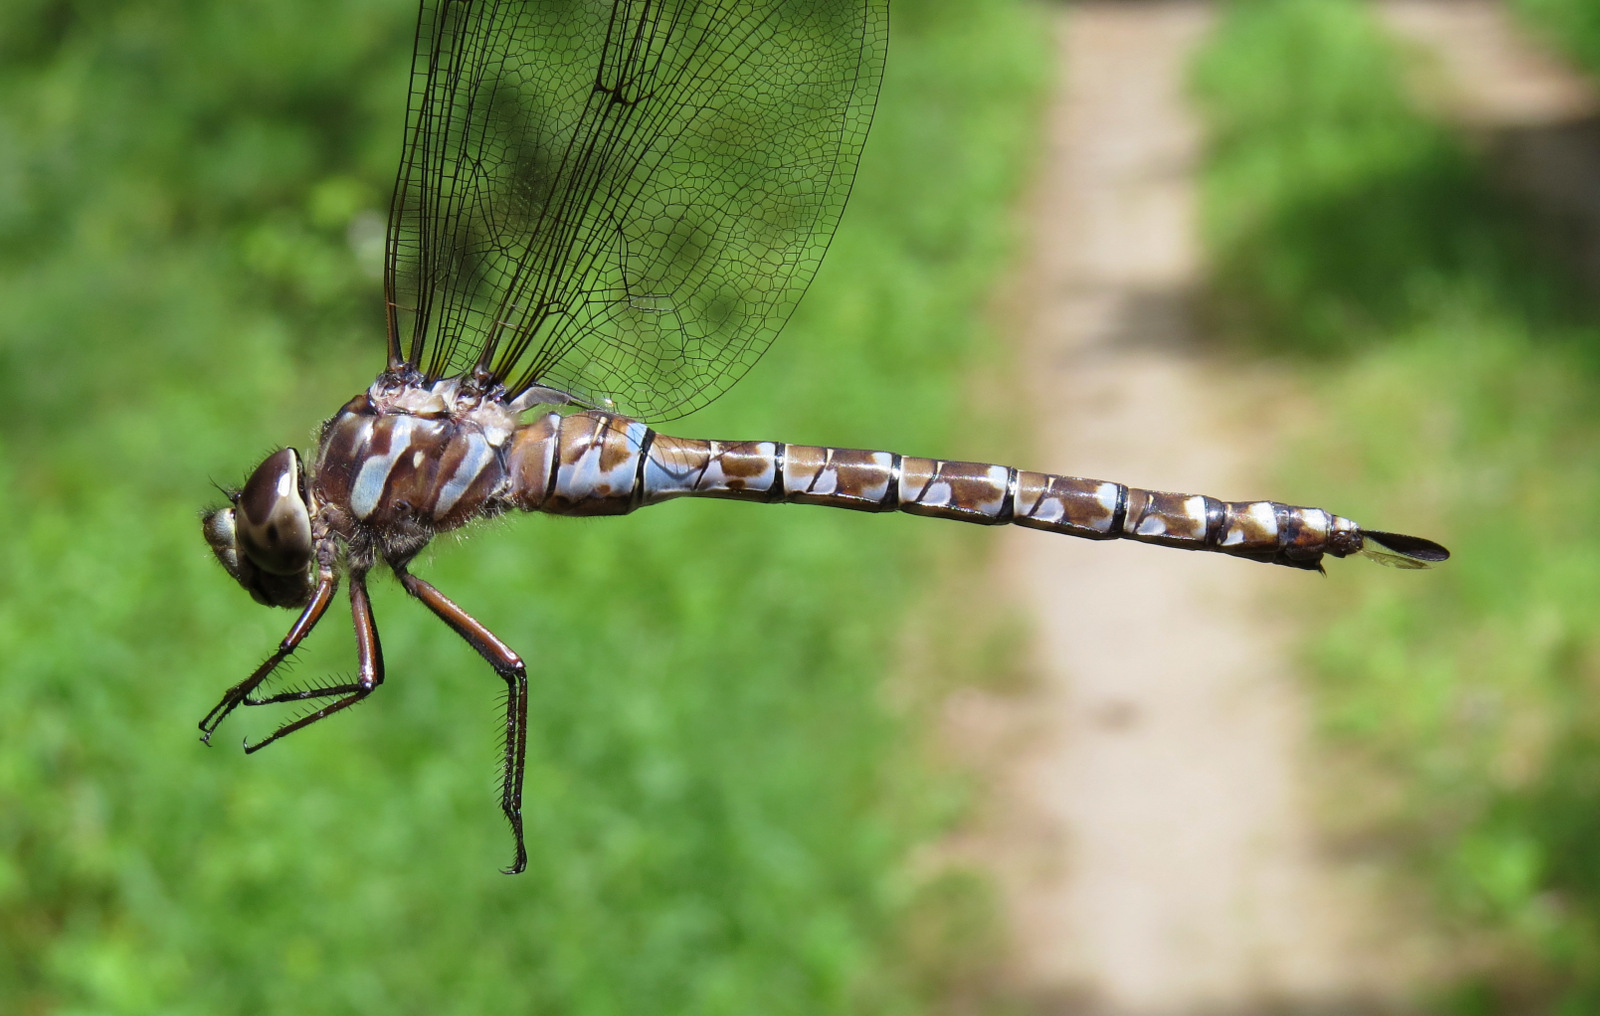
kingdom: Animalia
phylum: Arthropoda
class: Insecta
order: Odonata
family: Aeshnidae
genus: Aeshna
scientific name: Aeshna canadensis
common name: Canada darner
